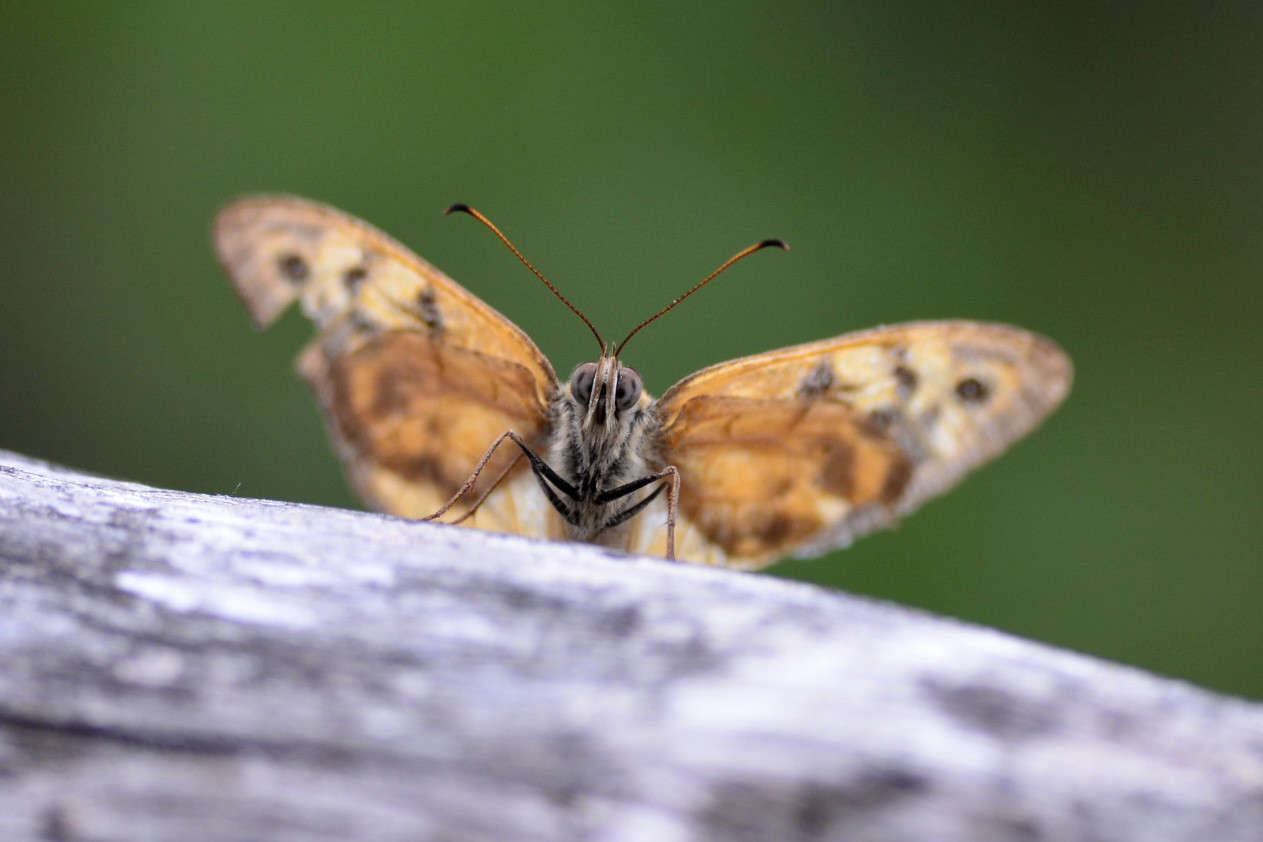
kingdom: Animalia
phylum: Arthropoda
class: Insecta
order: Lepidoptera
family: Nymphalidae
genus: Heteronympha
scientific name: Heteronympha merope
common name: Common brown
